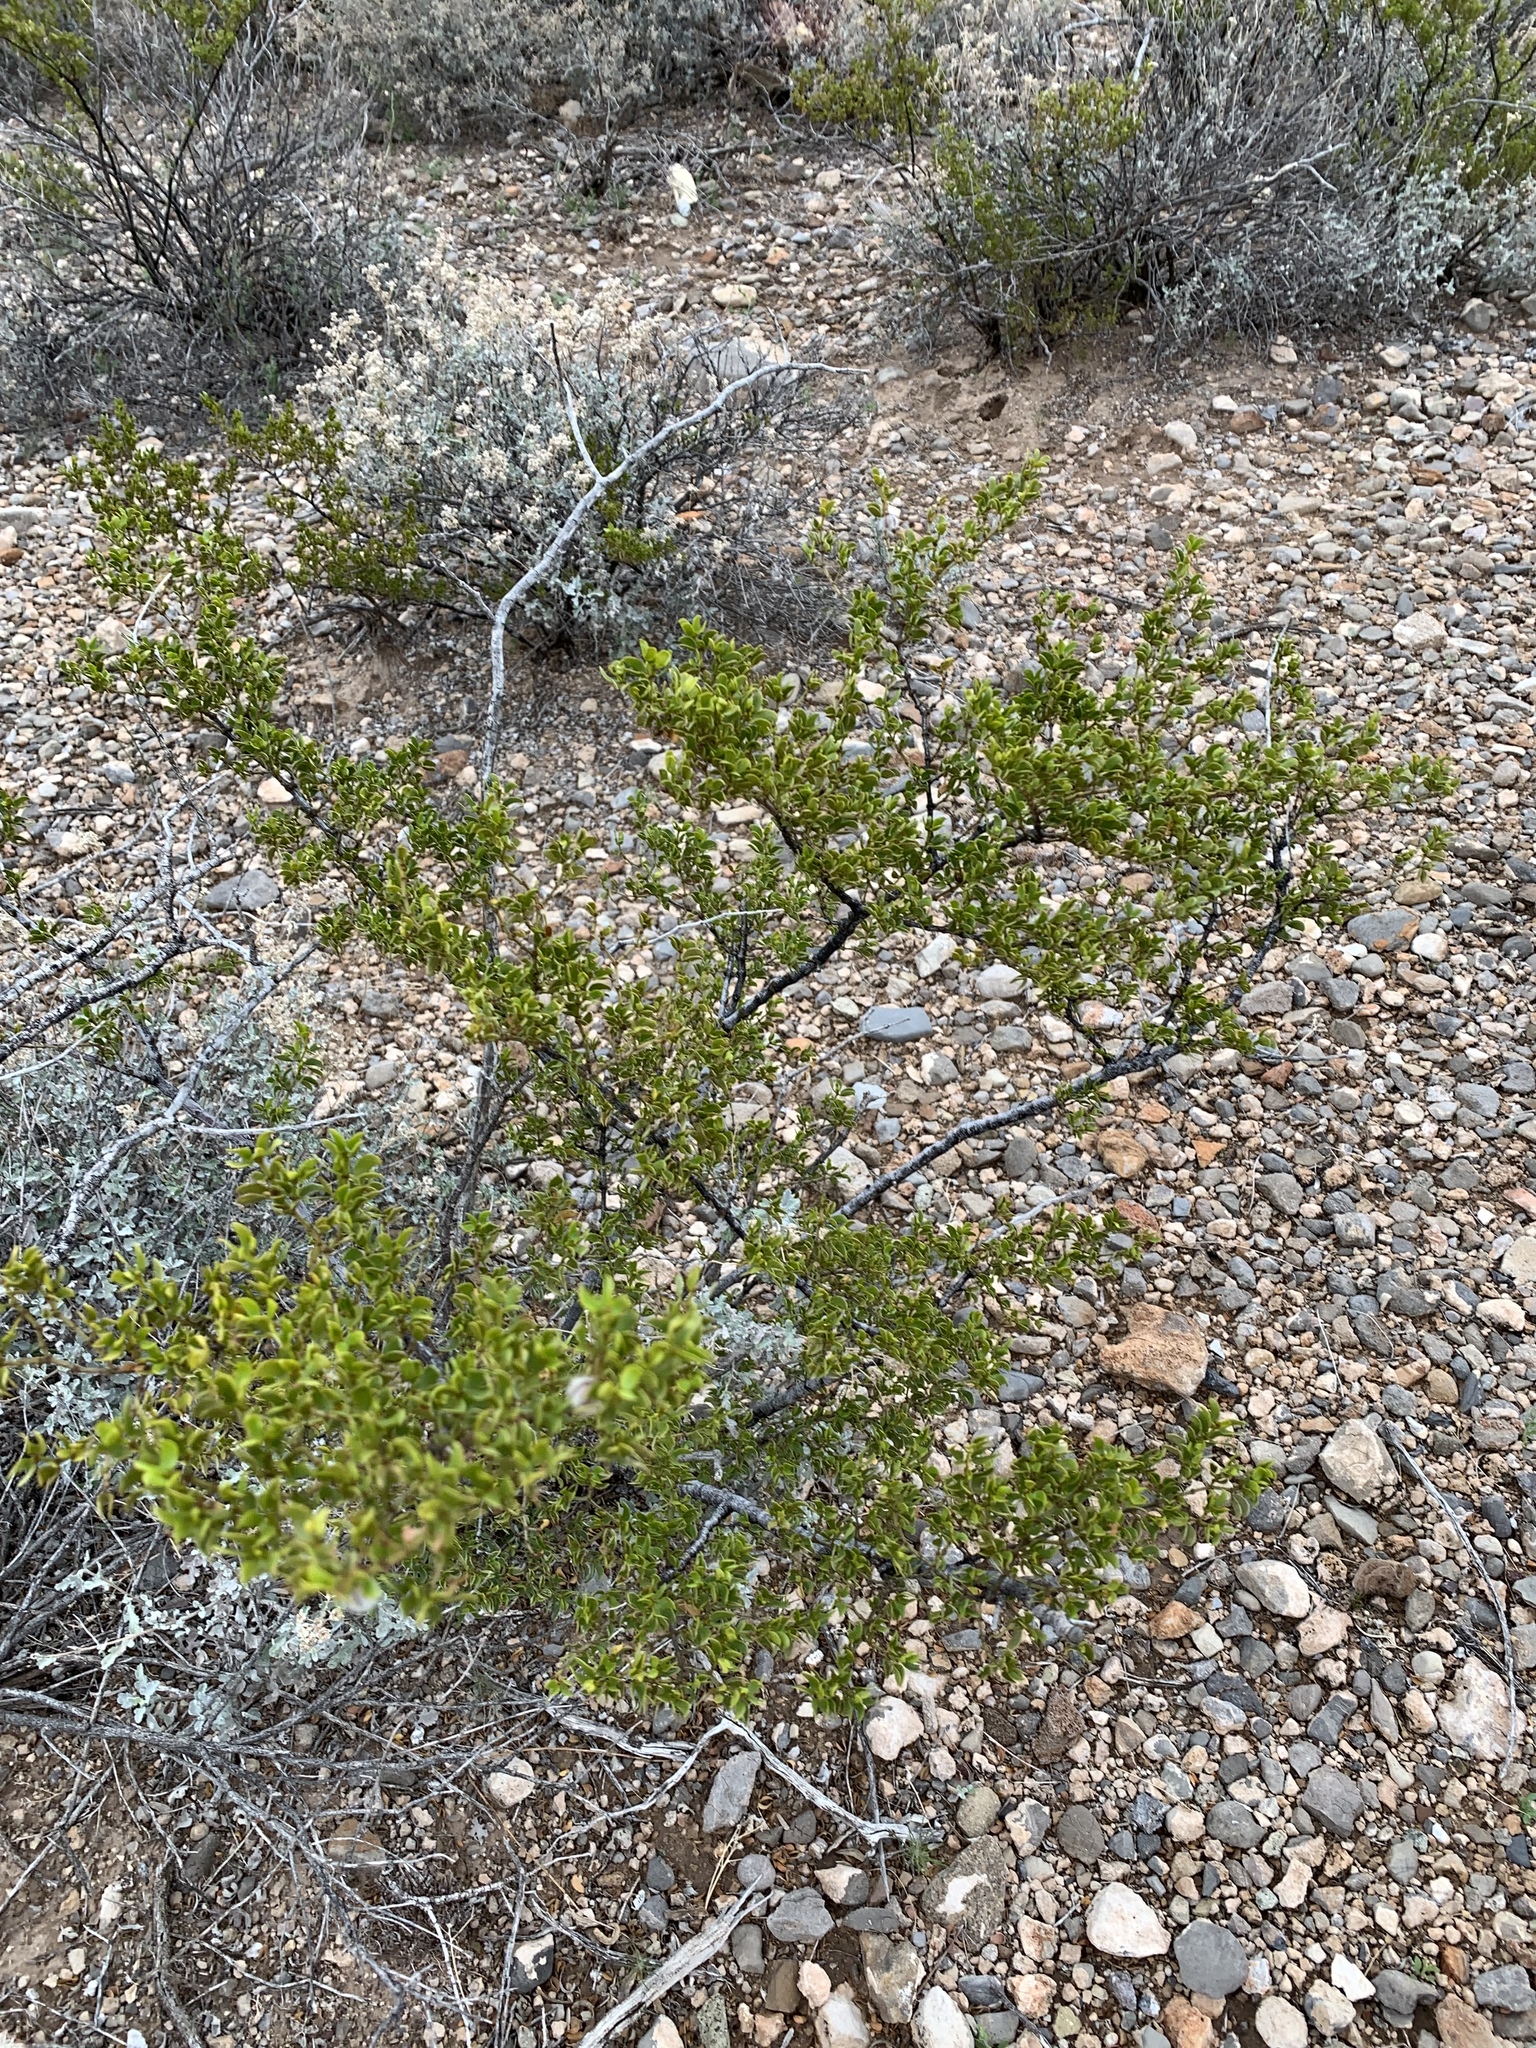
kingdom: Plantae
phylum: Tracheophyta
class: Magnoliopsida
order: Zygophyllales
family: Zygophyllaceae
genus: Larrea
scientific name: Larrea tridentata
